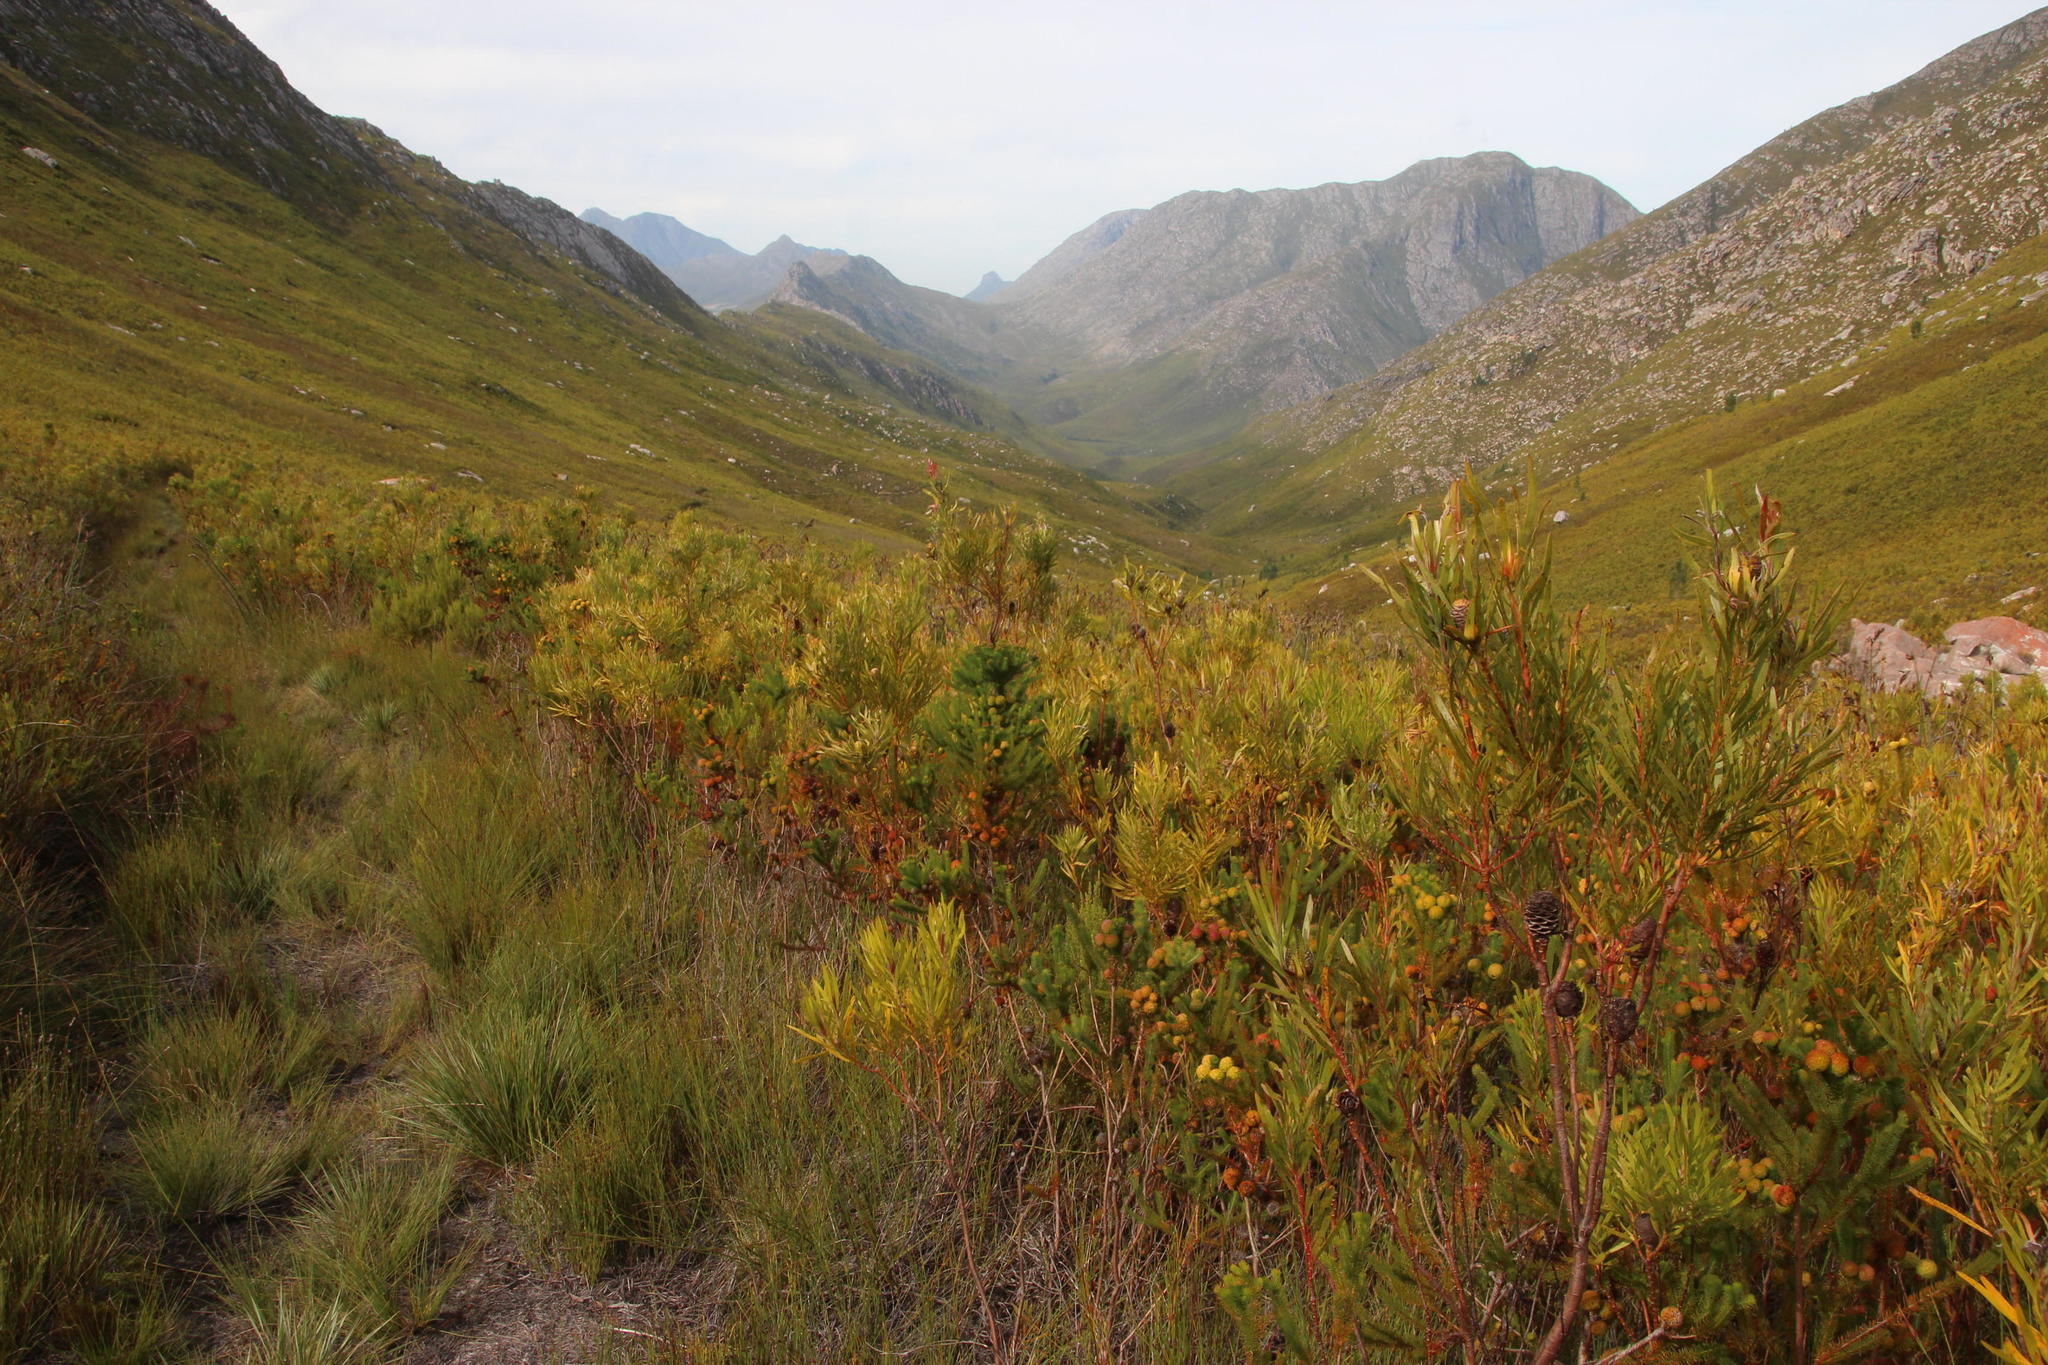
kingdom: Plantae
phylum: Tracheophyta
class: Magnoliopsida
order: Proteales
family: Proteaceae
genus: Leucadendron
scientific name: Leucadendron eucalyptifolium
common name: Gum-leaved conebush
